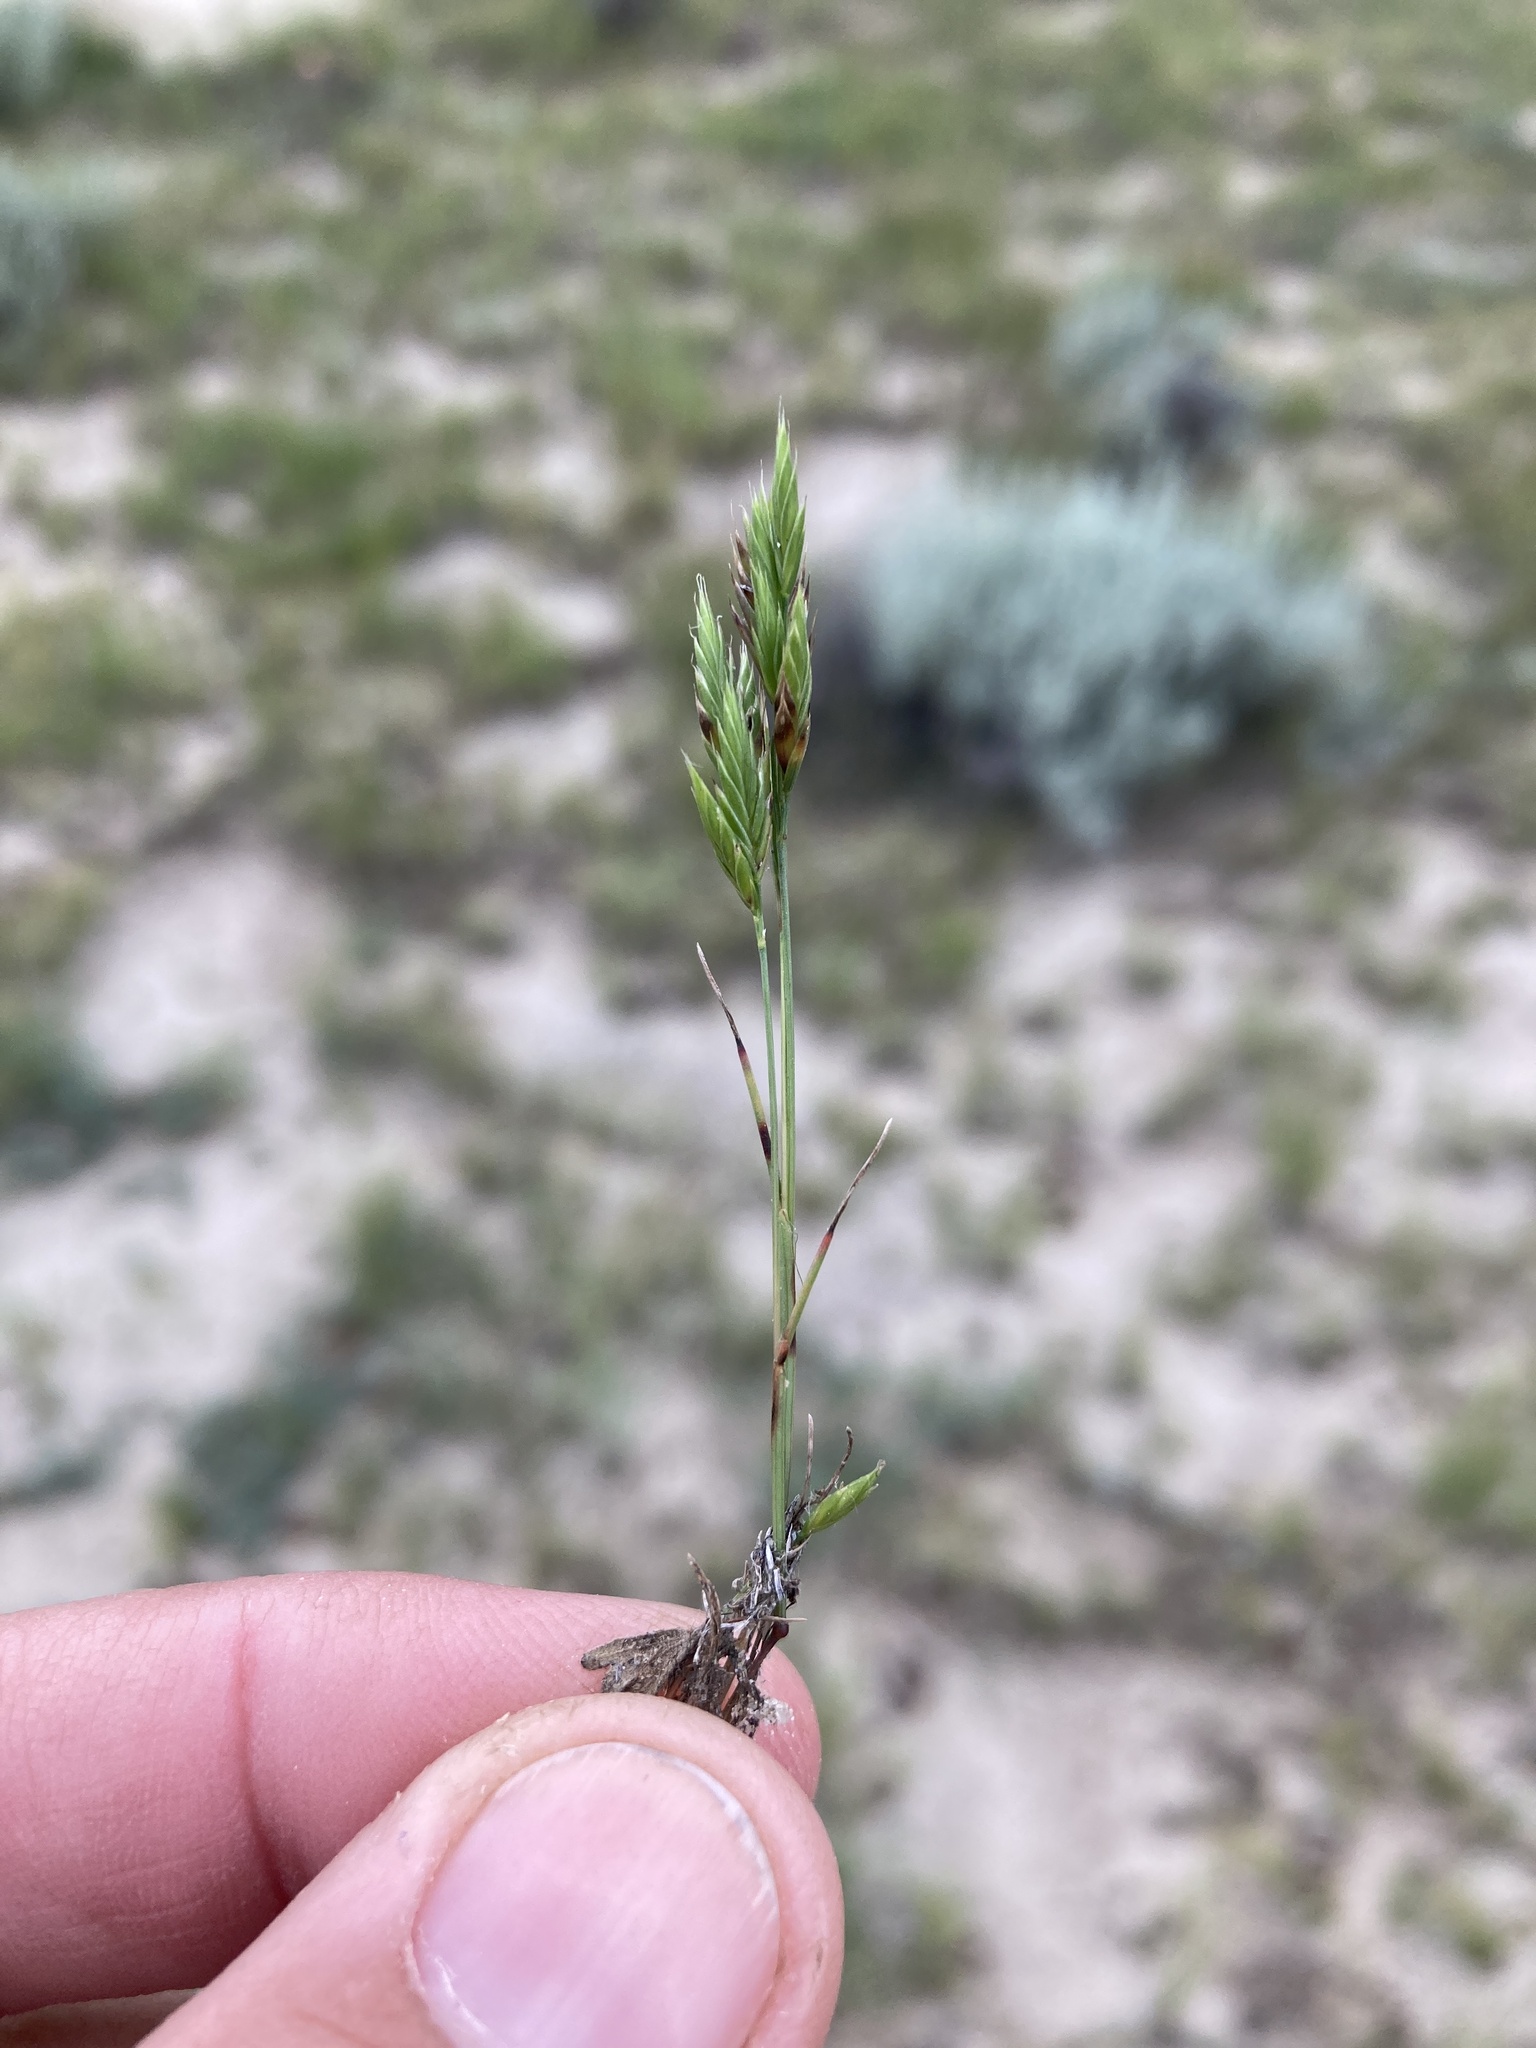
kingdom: Plantae
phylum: Tracheophyta
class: Liliopsida
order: Poales
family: Poaceae
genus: Festuca
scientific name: Festuca octoflora
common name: Sixweeks grass
